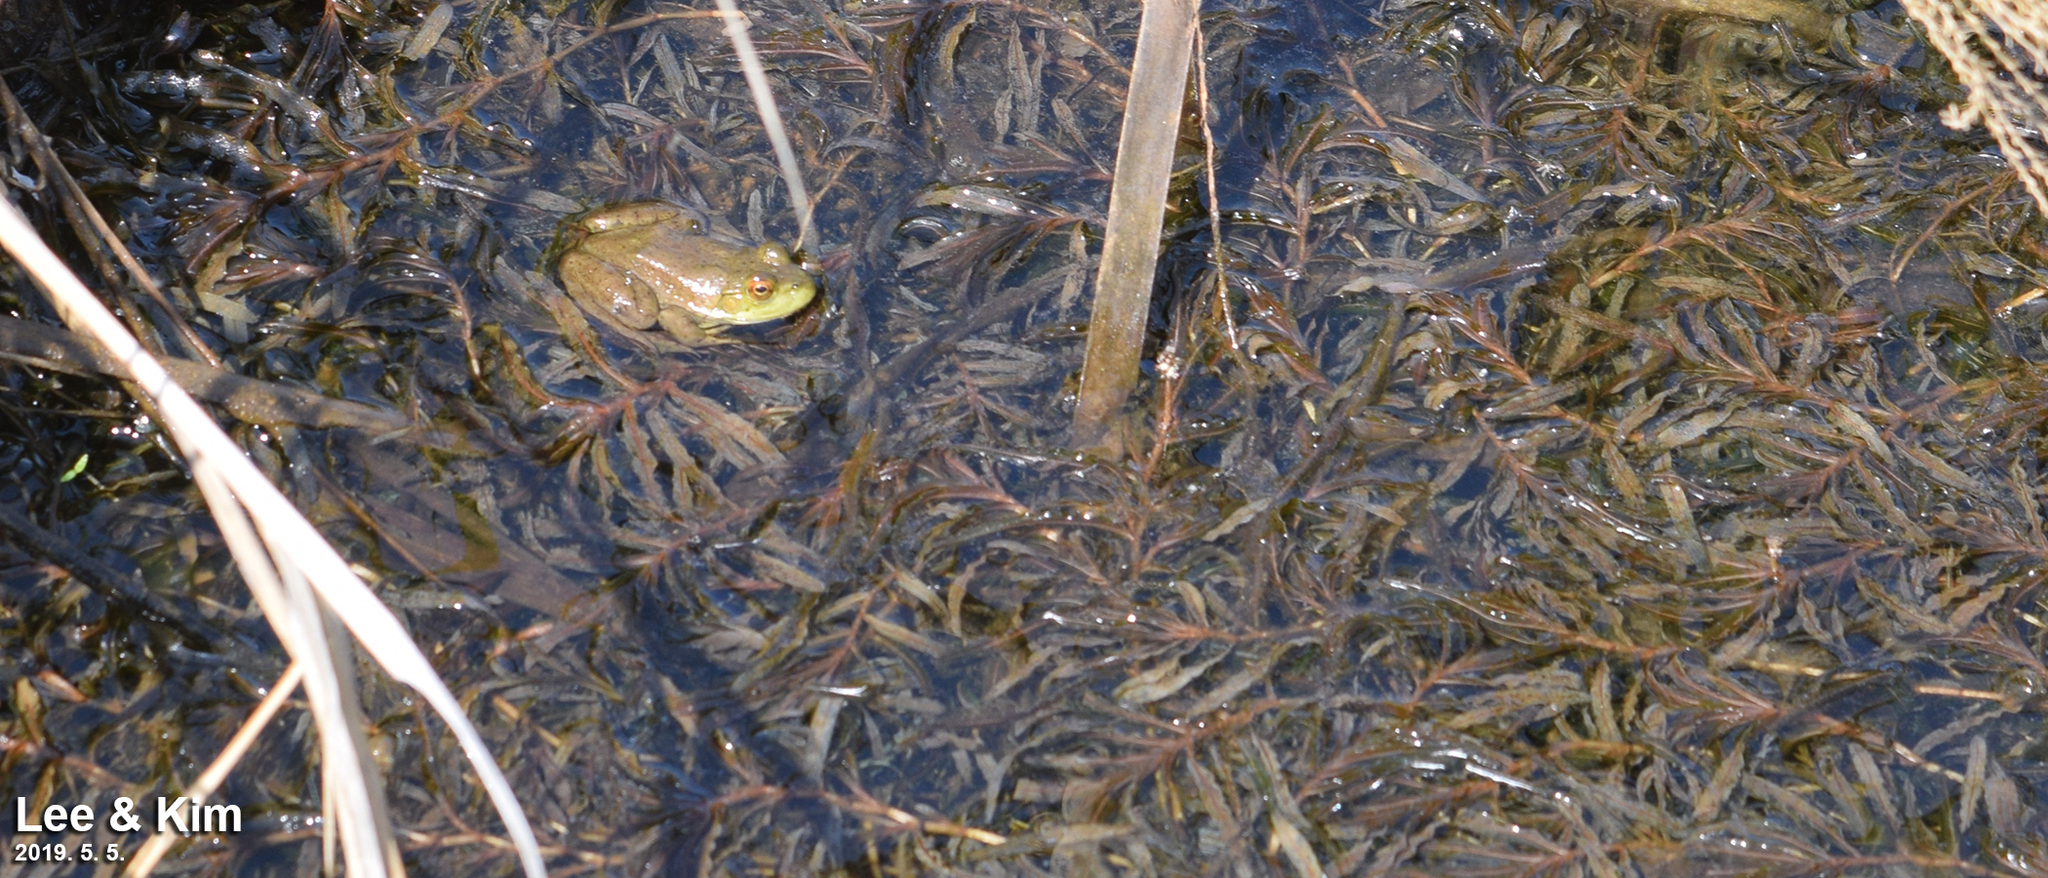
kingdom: Animalia
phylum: Chordata
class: Amphibia
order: Anura
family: Ranidae
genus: Lithobates
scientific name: Lithobates catesbeianus
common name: American bullfrog
